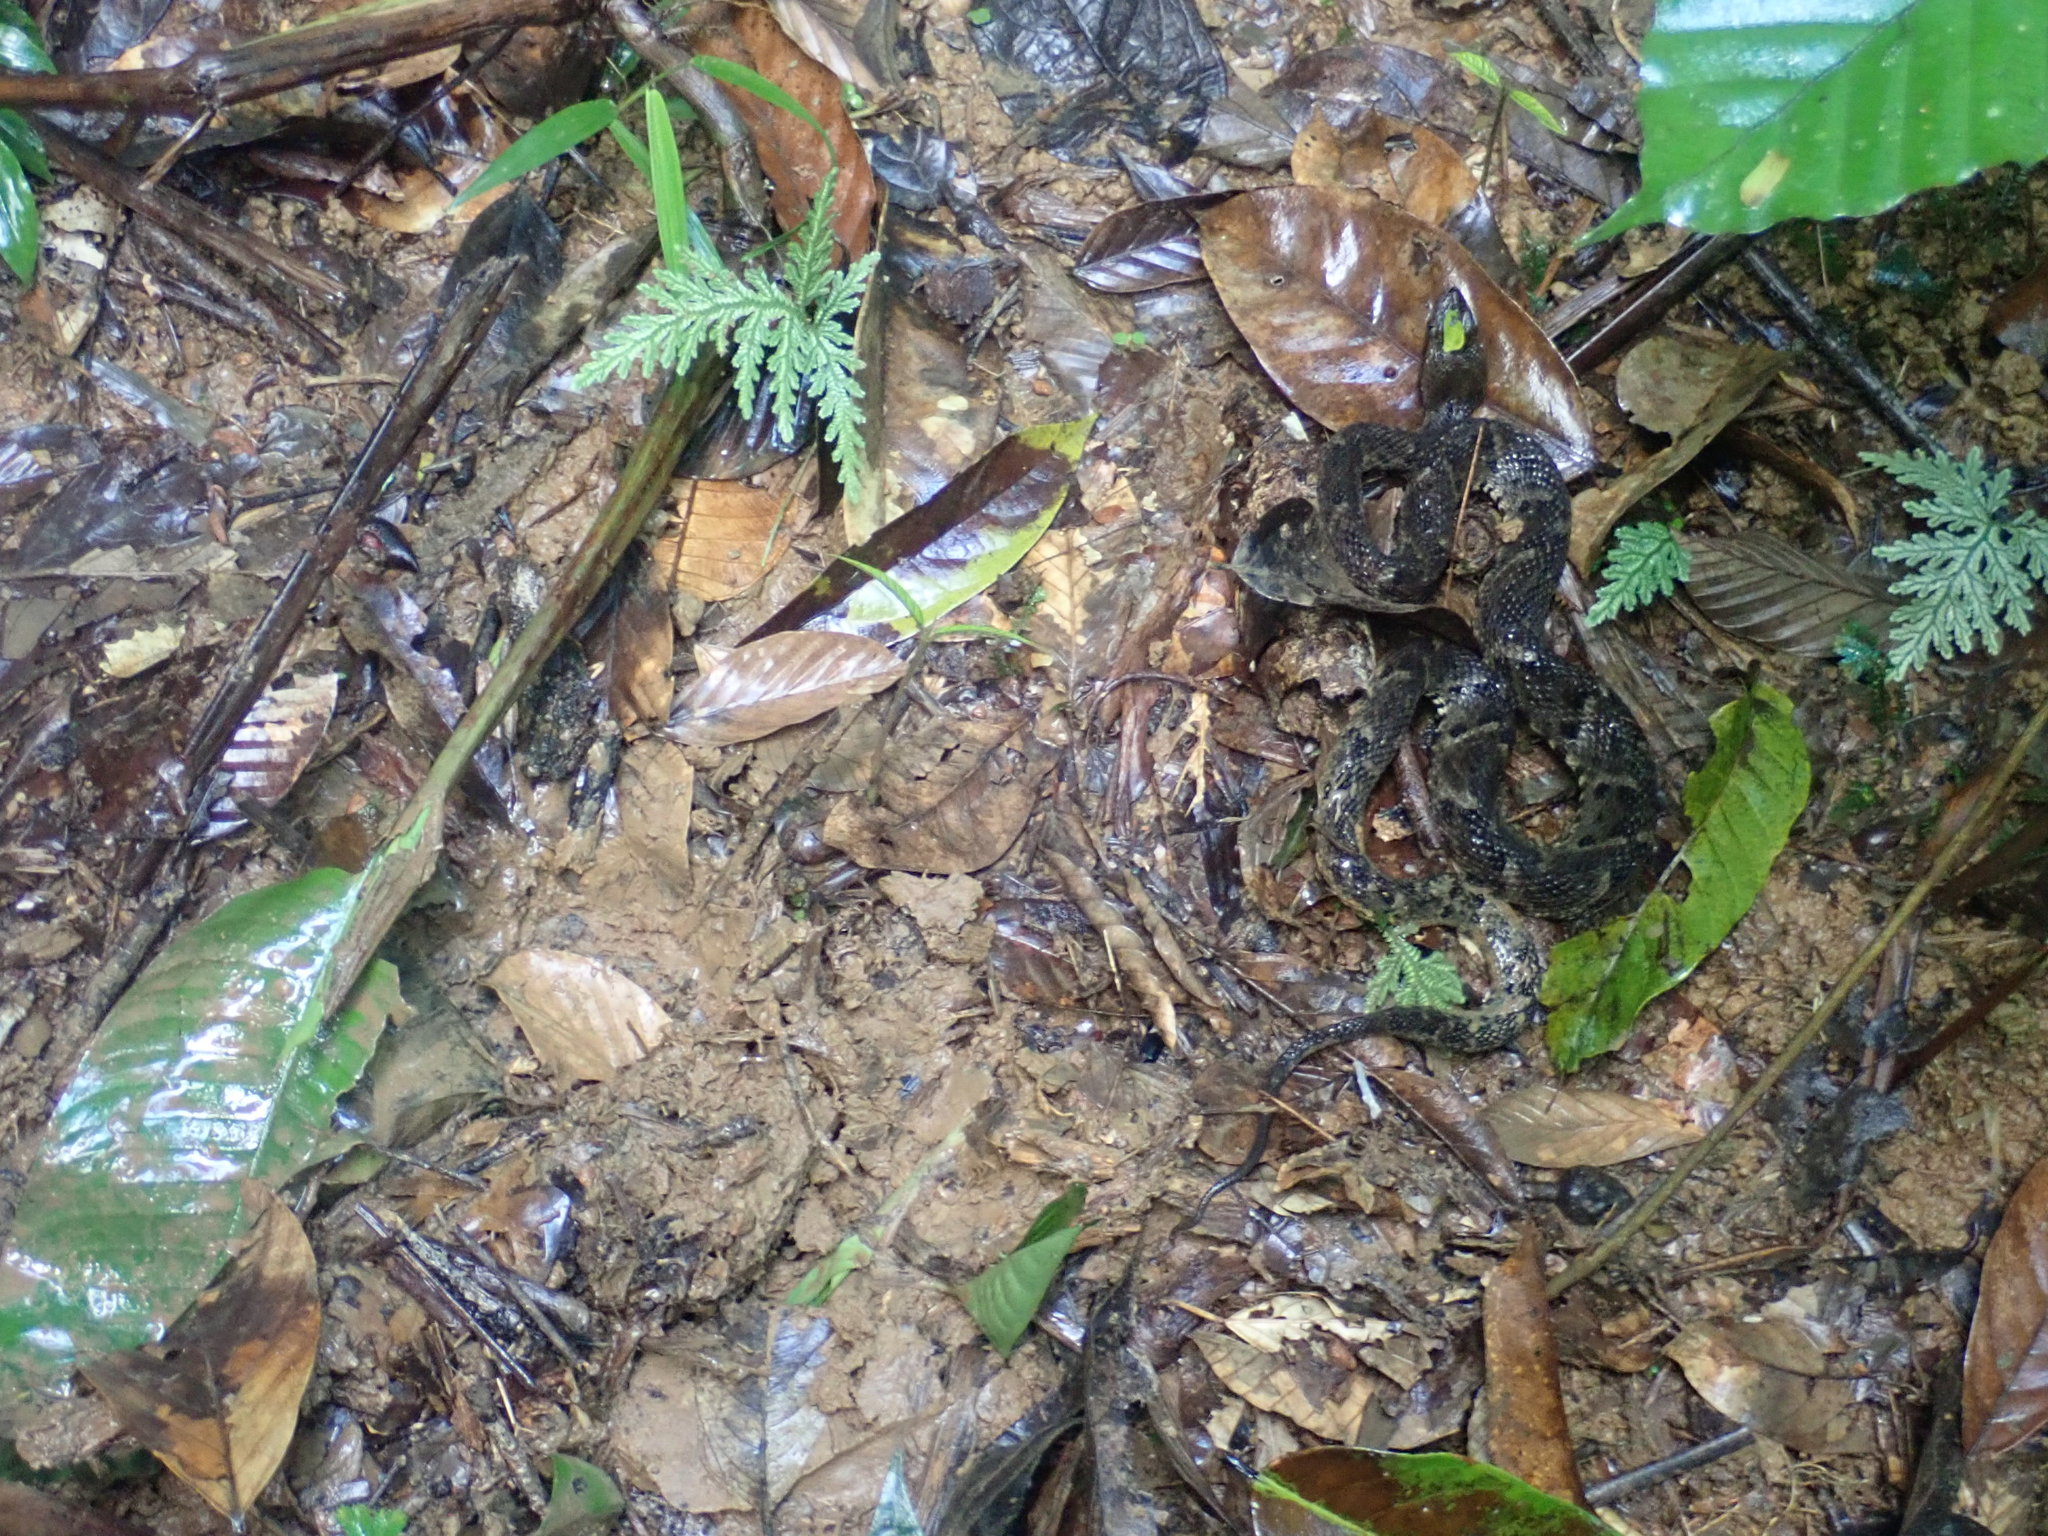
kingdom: Animalia
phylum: Chordata
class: Squamata
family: Viperidae
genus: Bothrops
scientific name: Bothrops atrox
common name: Common lancehead
